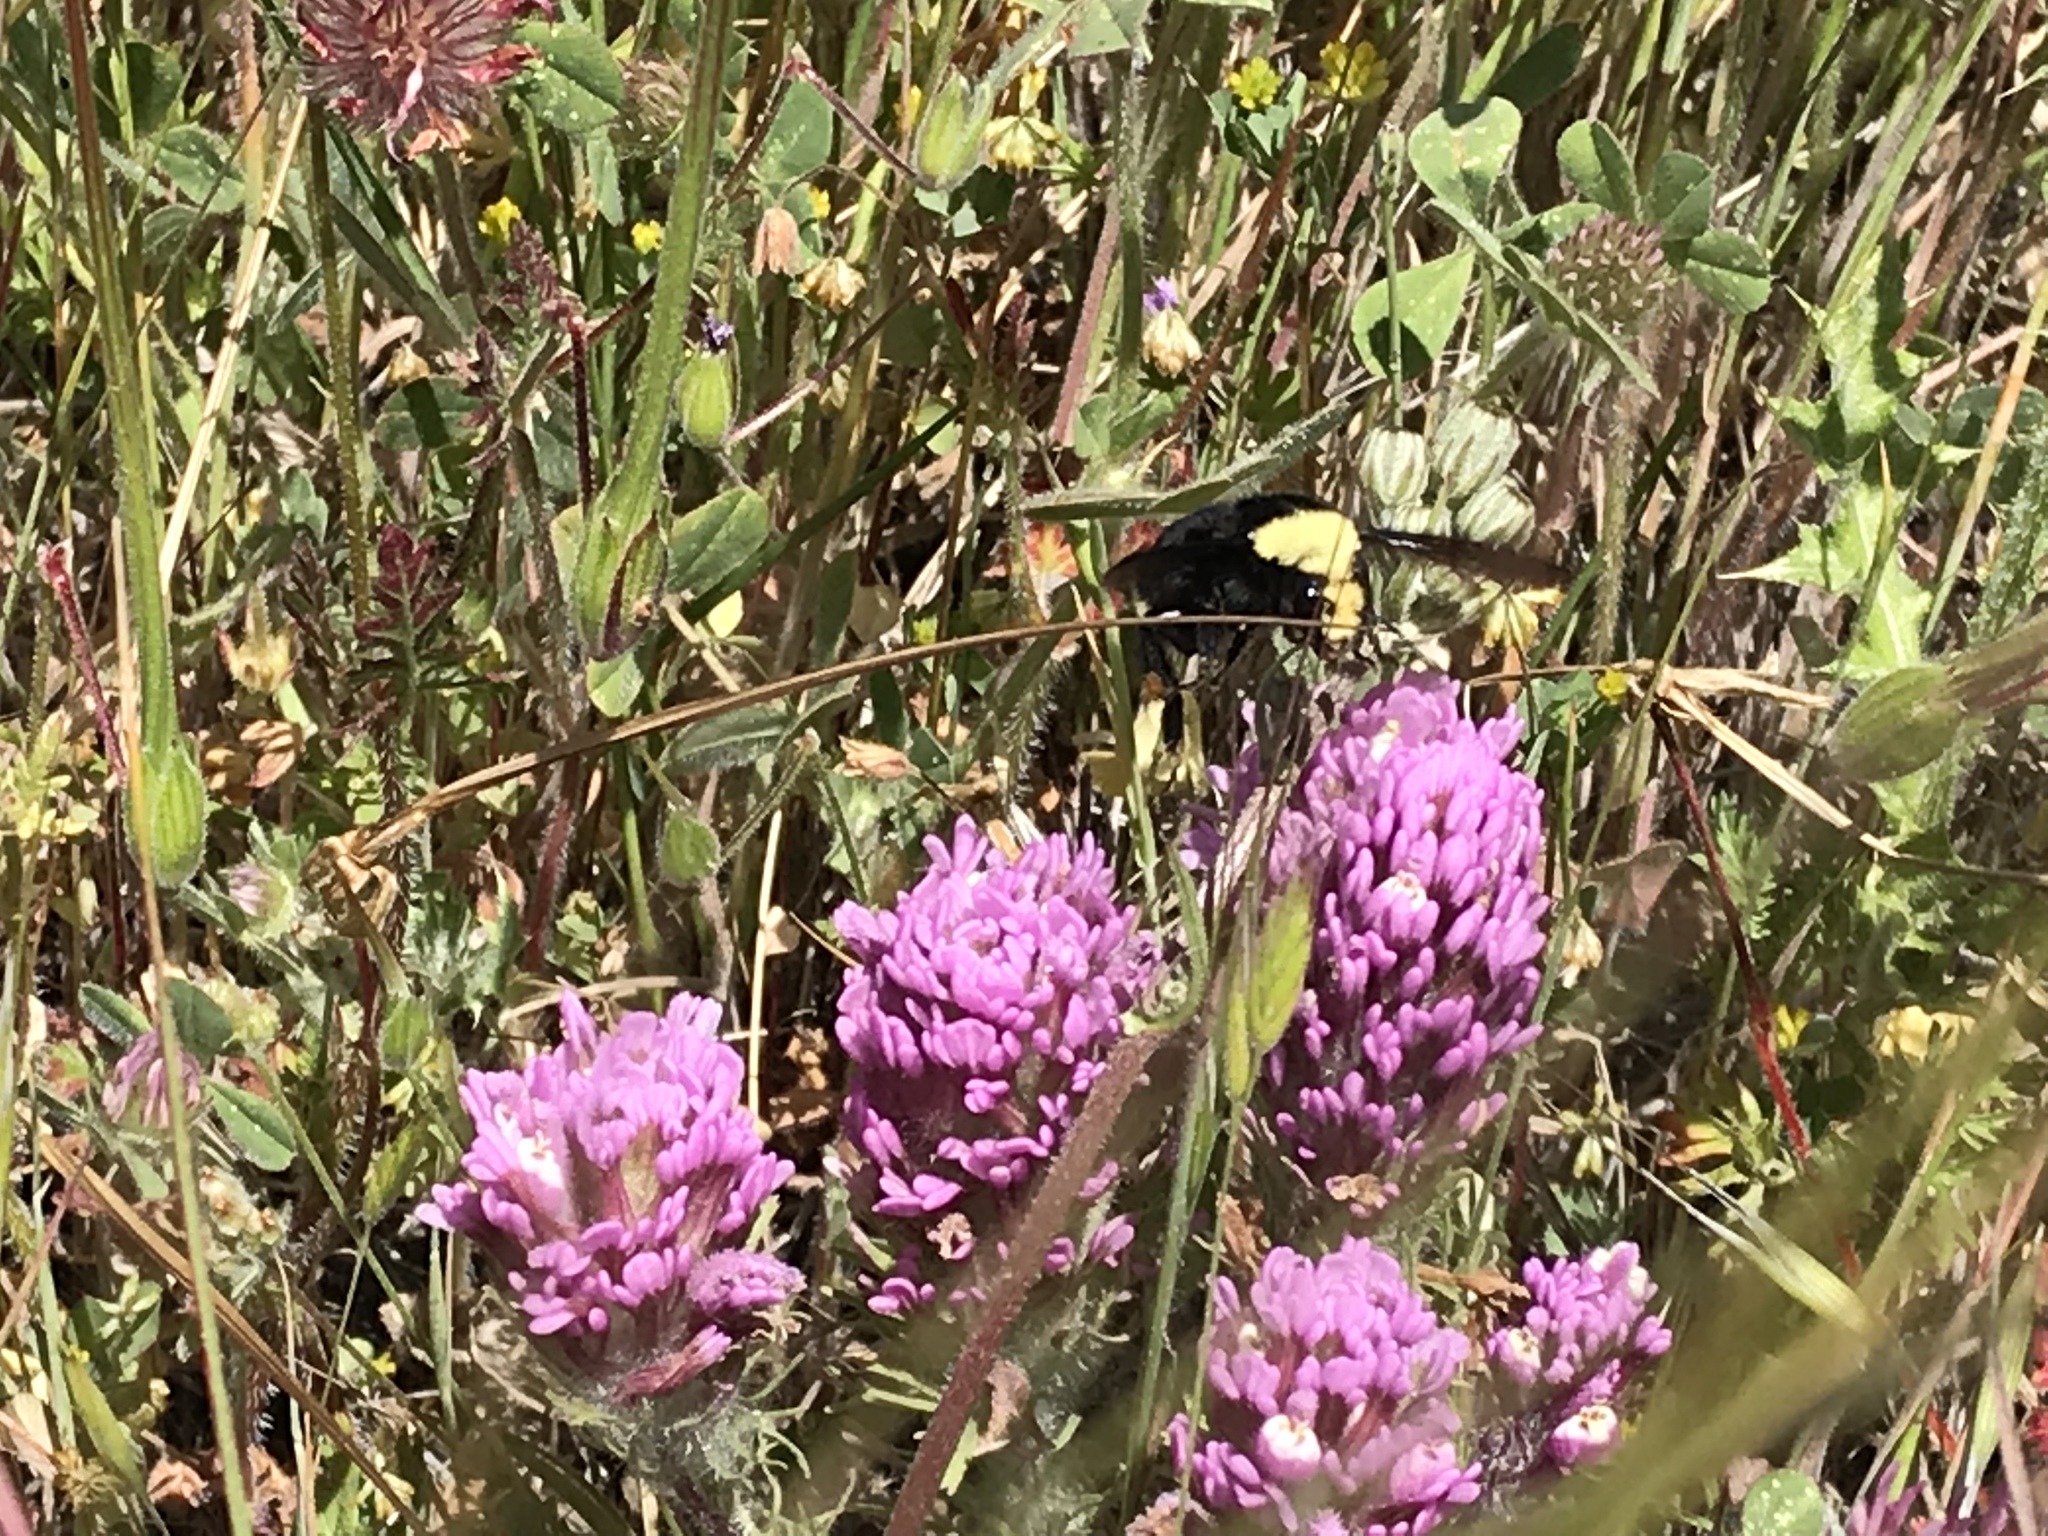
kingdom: Plantae
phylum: Tracheophyta
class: Magnoliopsida
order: Lamiales
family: Orobanchaceae
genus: Castilleja
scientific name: Castilleja exserta
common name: Purple owl-clover
